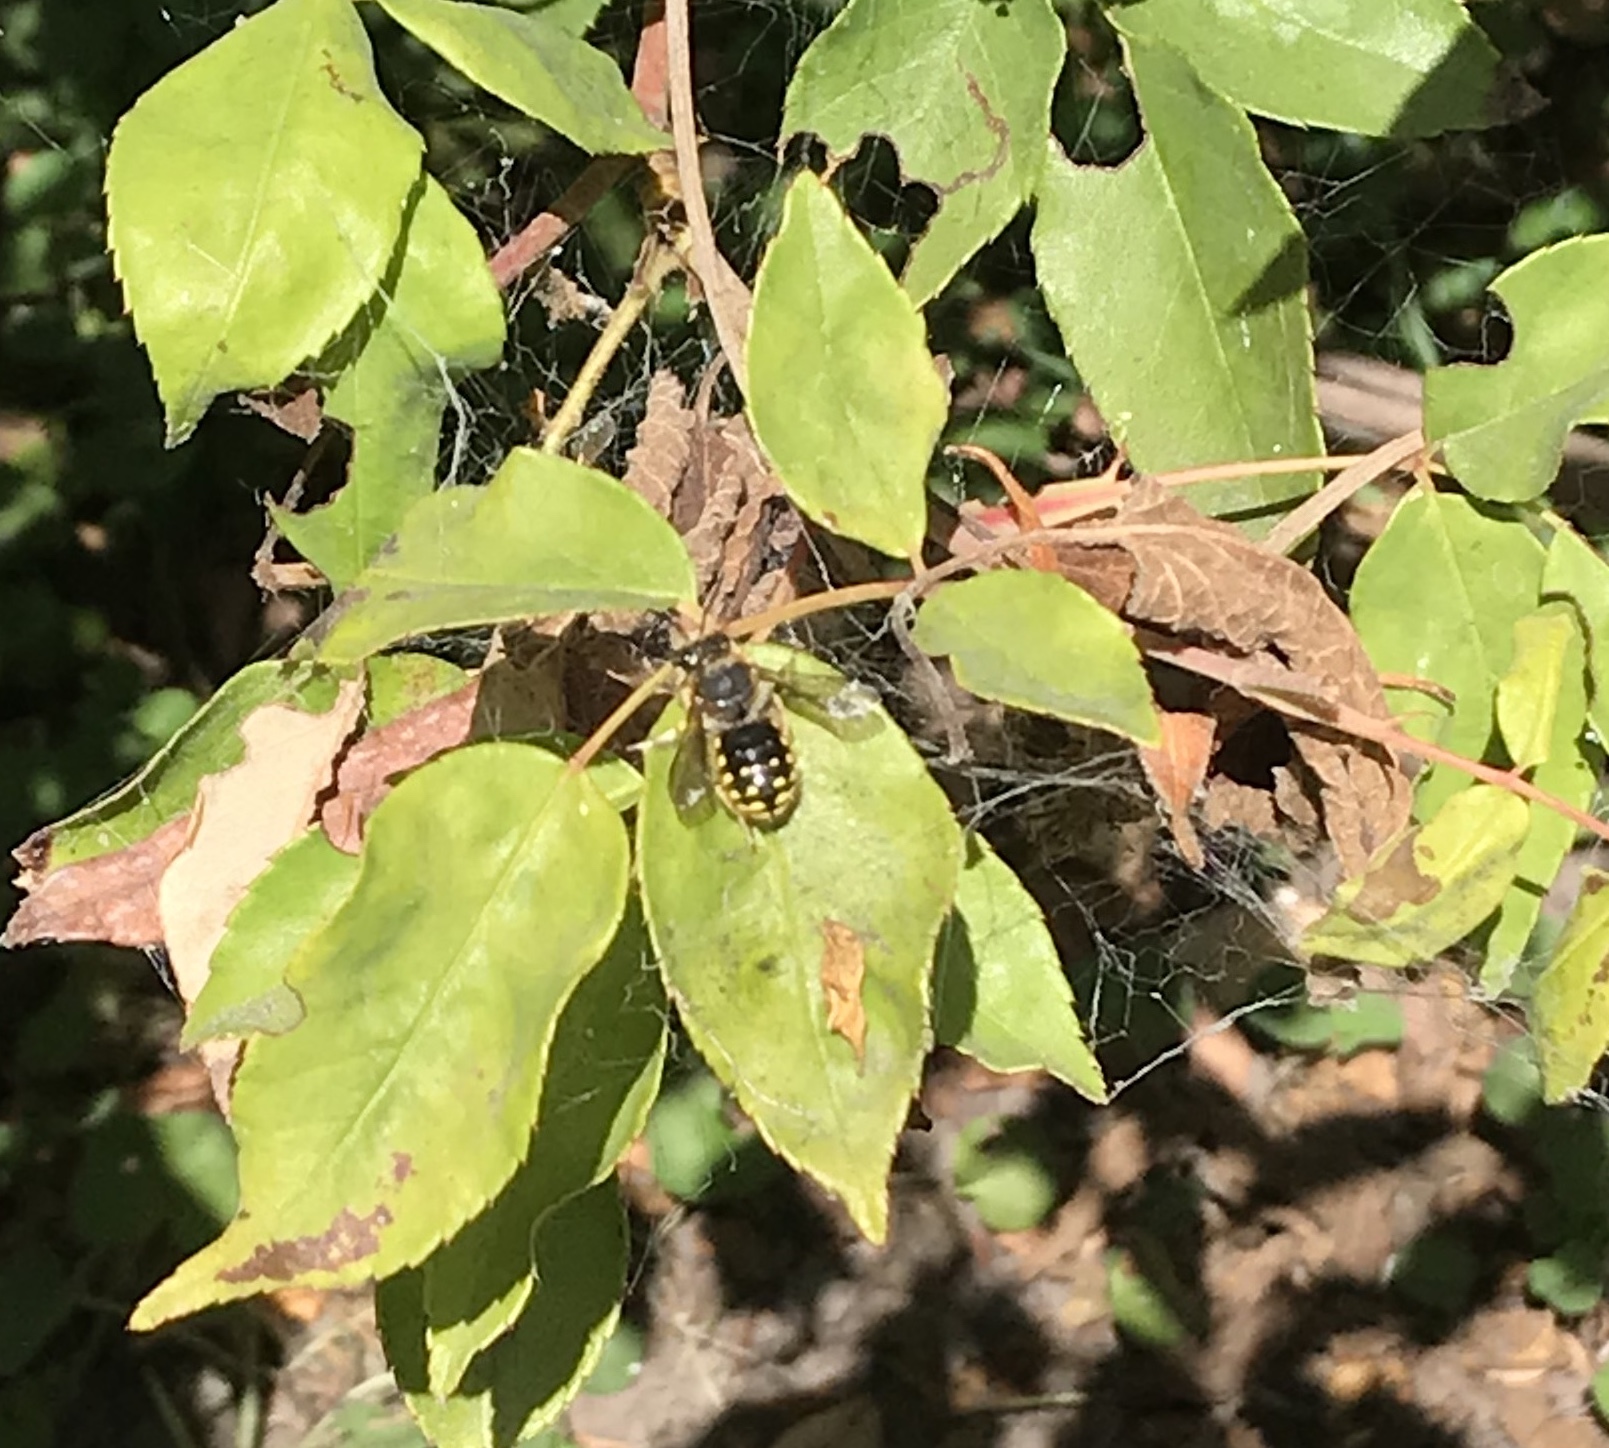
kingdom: Animalia
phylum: Arthropoda
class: Insecta
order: Hymenoptera
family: Megachilidae
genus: Anthidium
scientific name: Anthidium manicatum
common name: Wool carder bee
